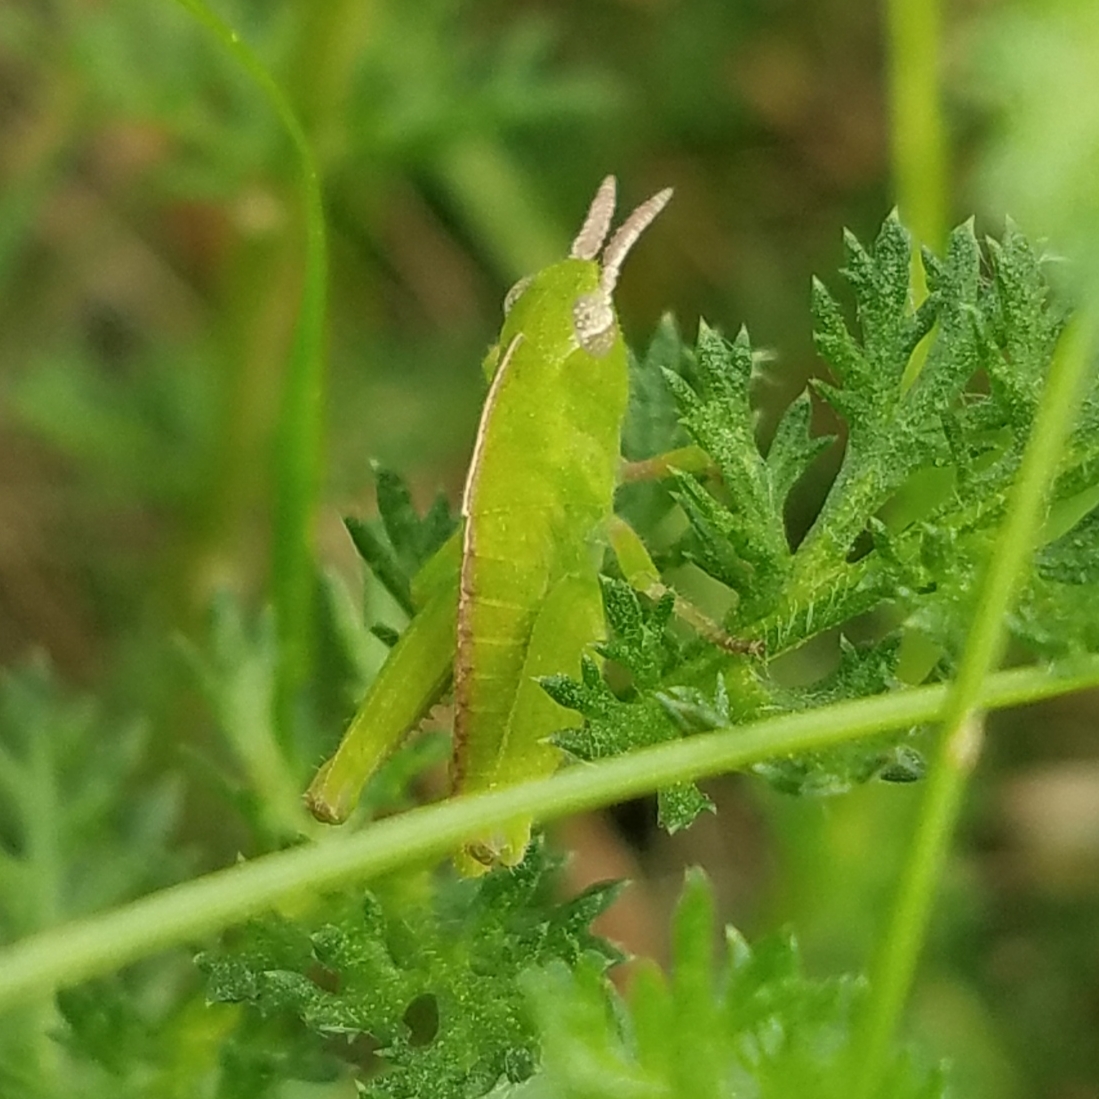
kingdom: Animalia
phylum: Arthropoda
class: Insecta
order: Orthoptera
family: Acrididae
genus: Chortophaga
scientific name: Chortophaga viridifasciata
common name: Green-striped grasshopper
